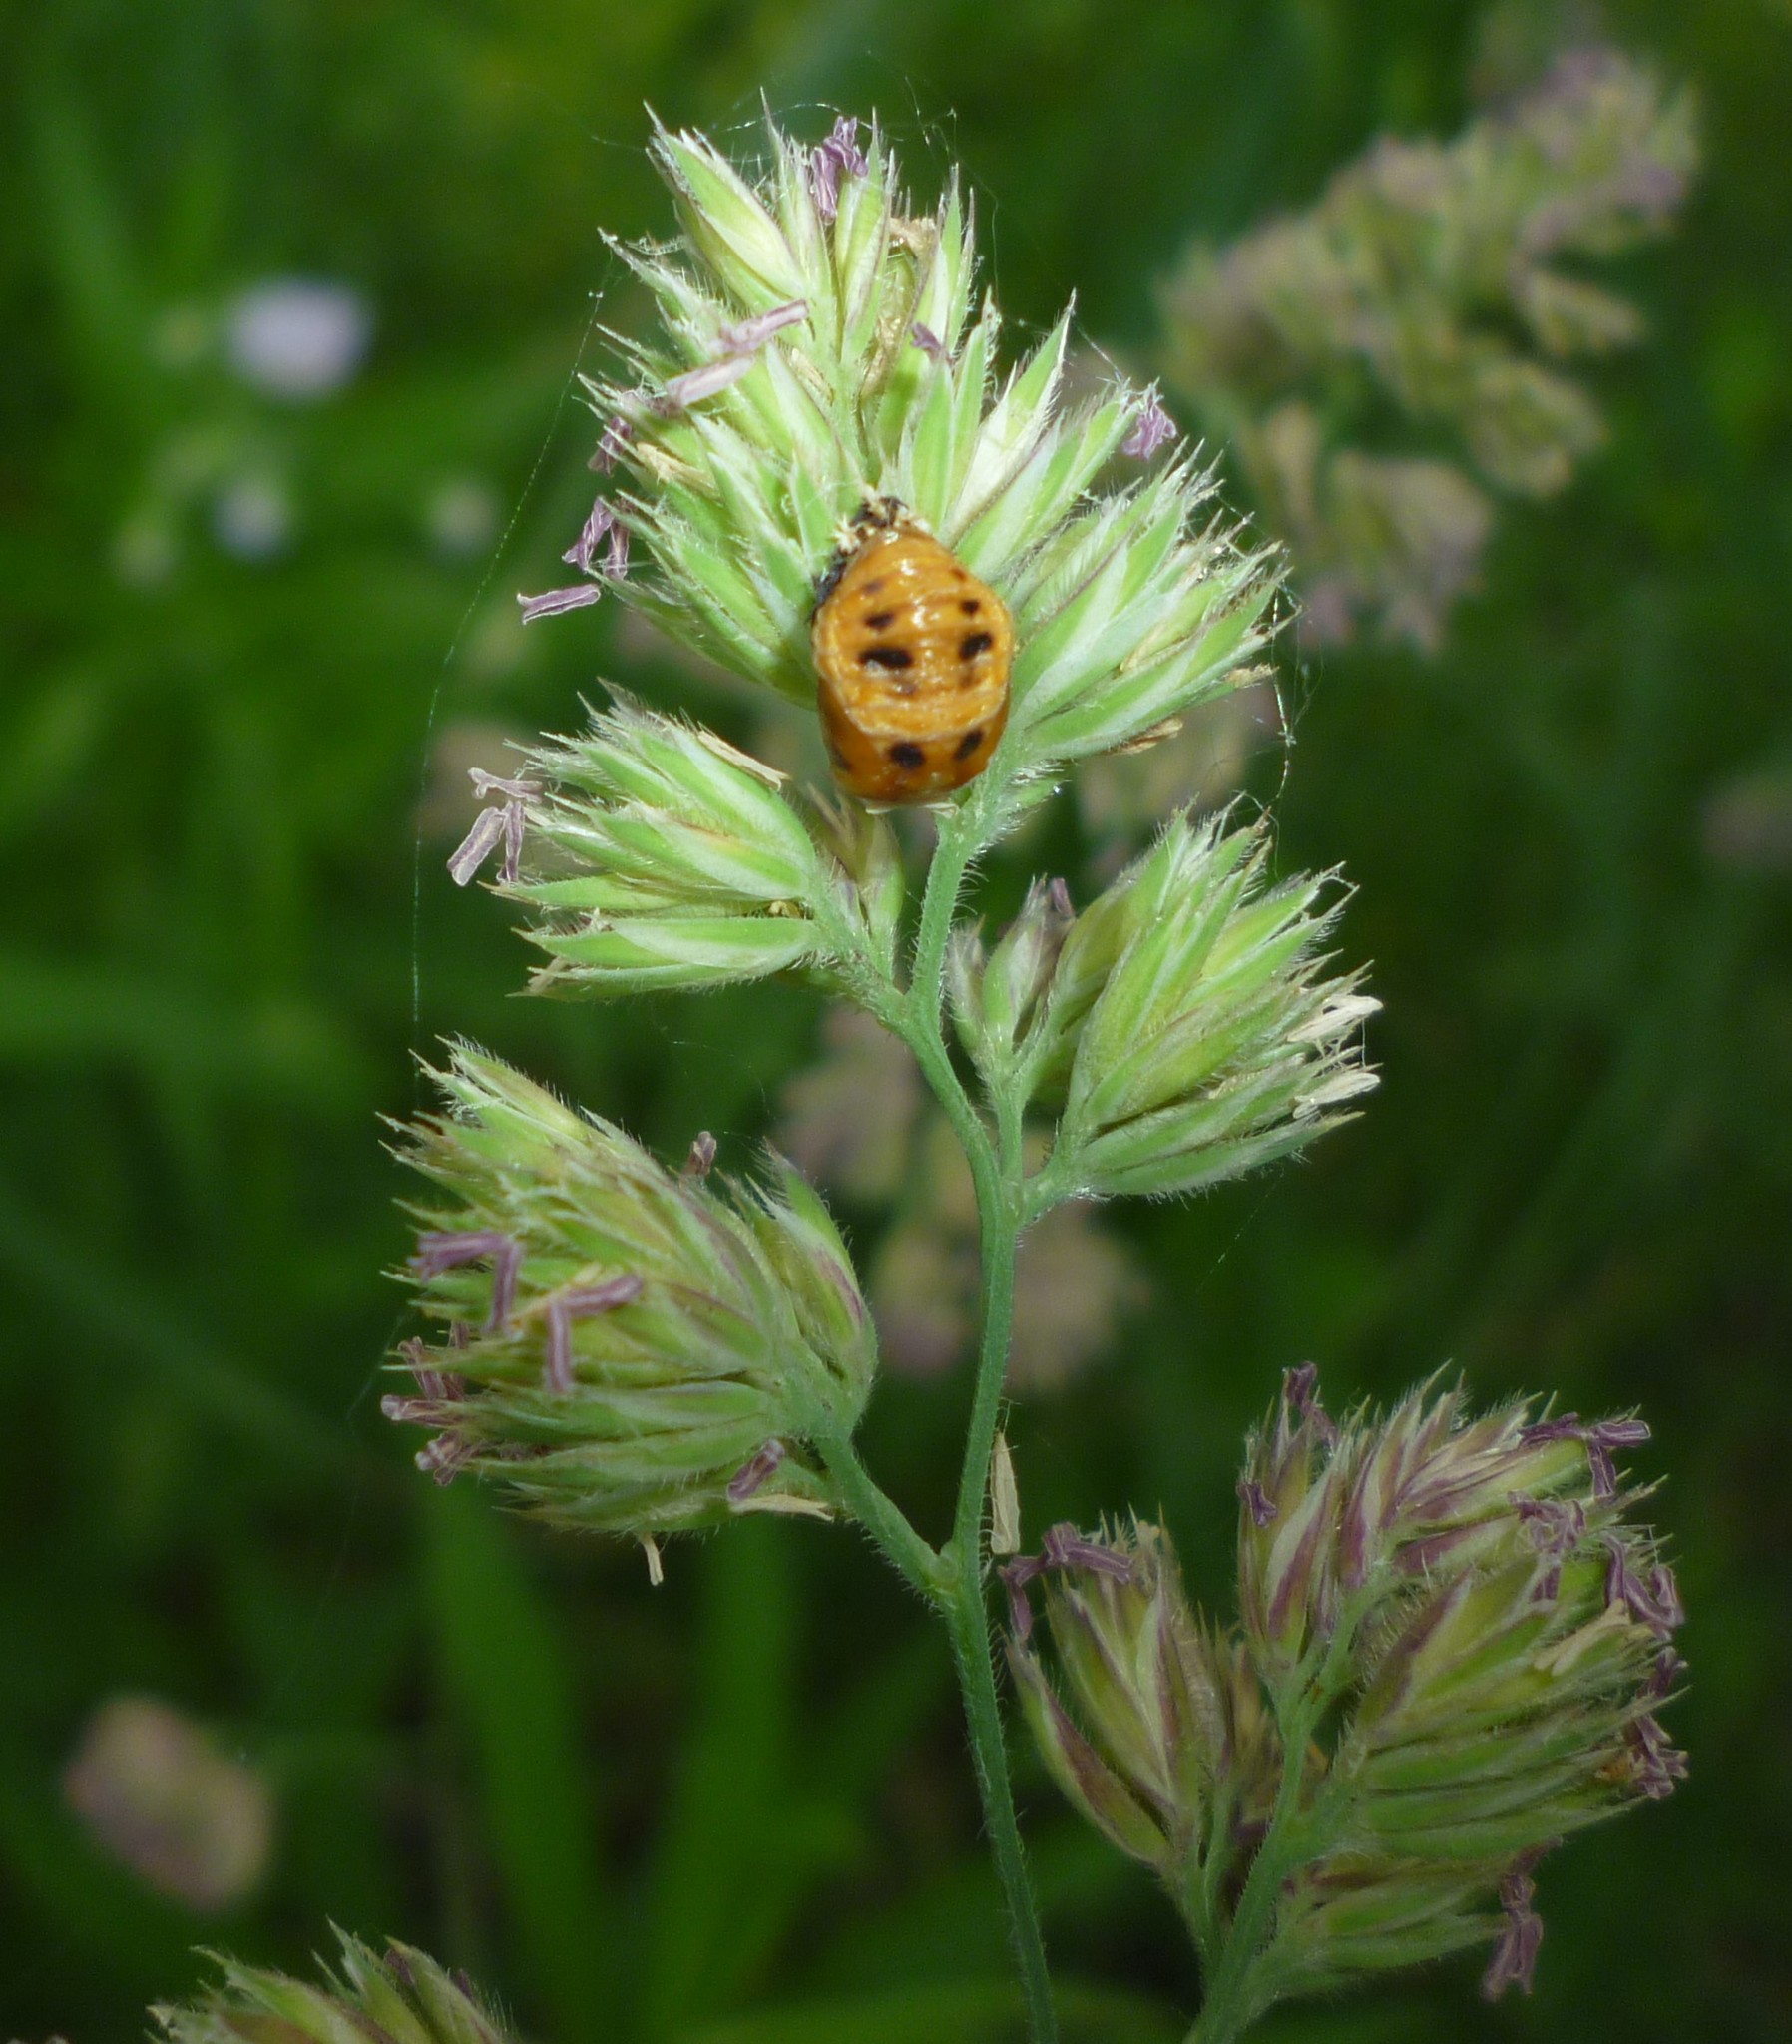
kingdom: Plantae
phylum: Tracheophyta
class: Liliopsida
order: Poales
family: Poaceae
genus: Dactylis
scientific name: Dactylis glomerata
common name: Orchardgrass
